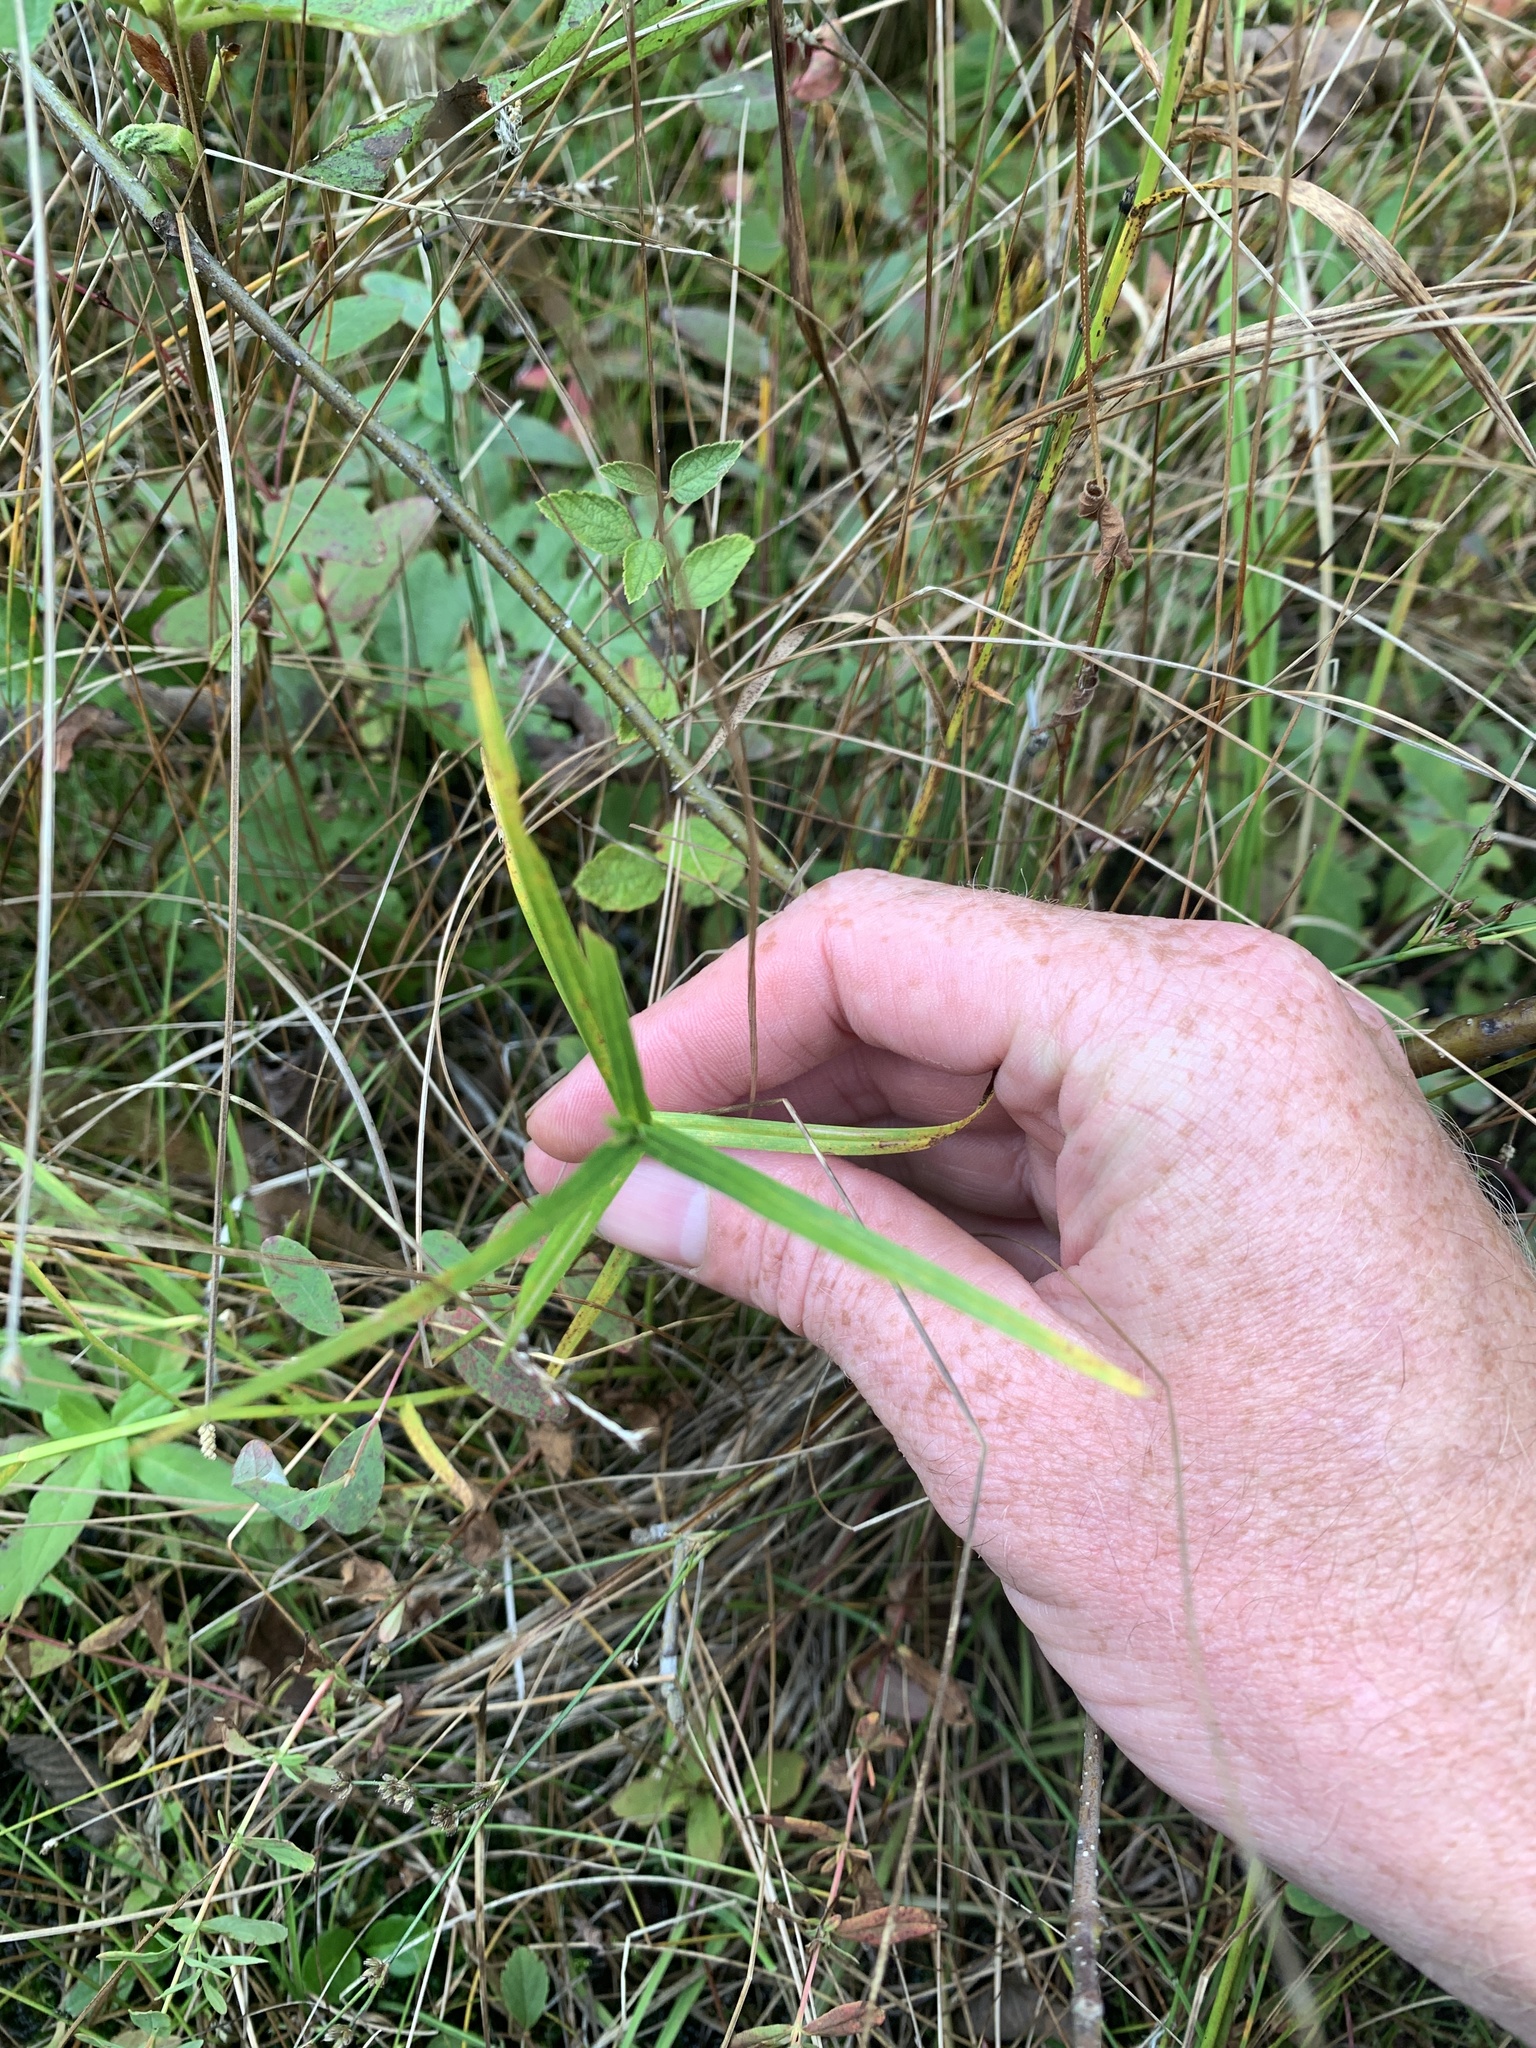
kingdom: Plantae
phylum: Tracheophyta
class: Liliopsida
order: Poales
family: Cyperaceae
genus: Dulichium
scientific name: Dulichium arundinaceum
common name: Three-way sedge
